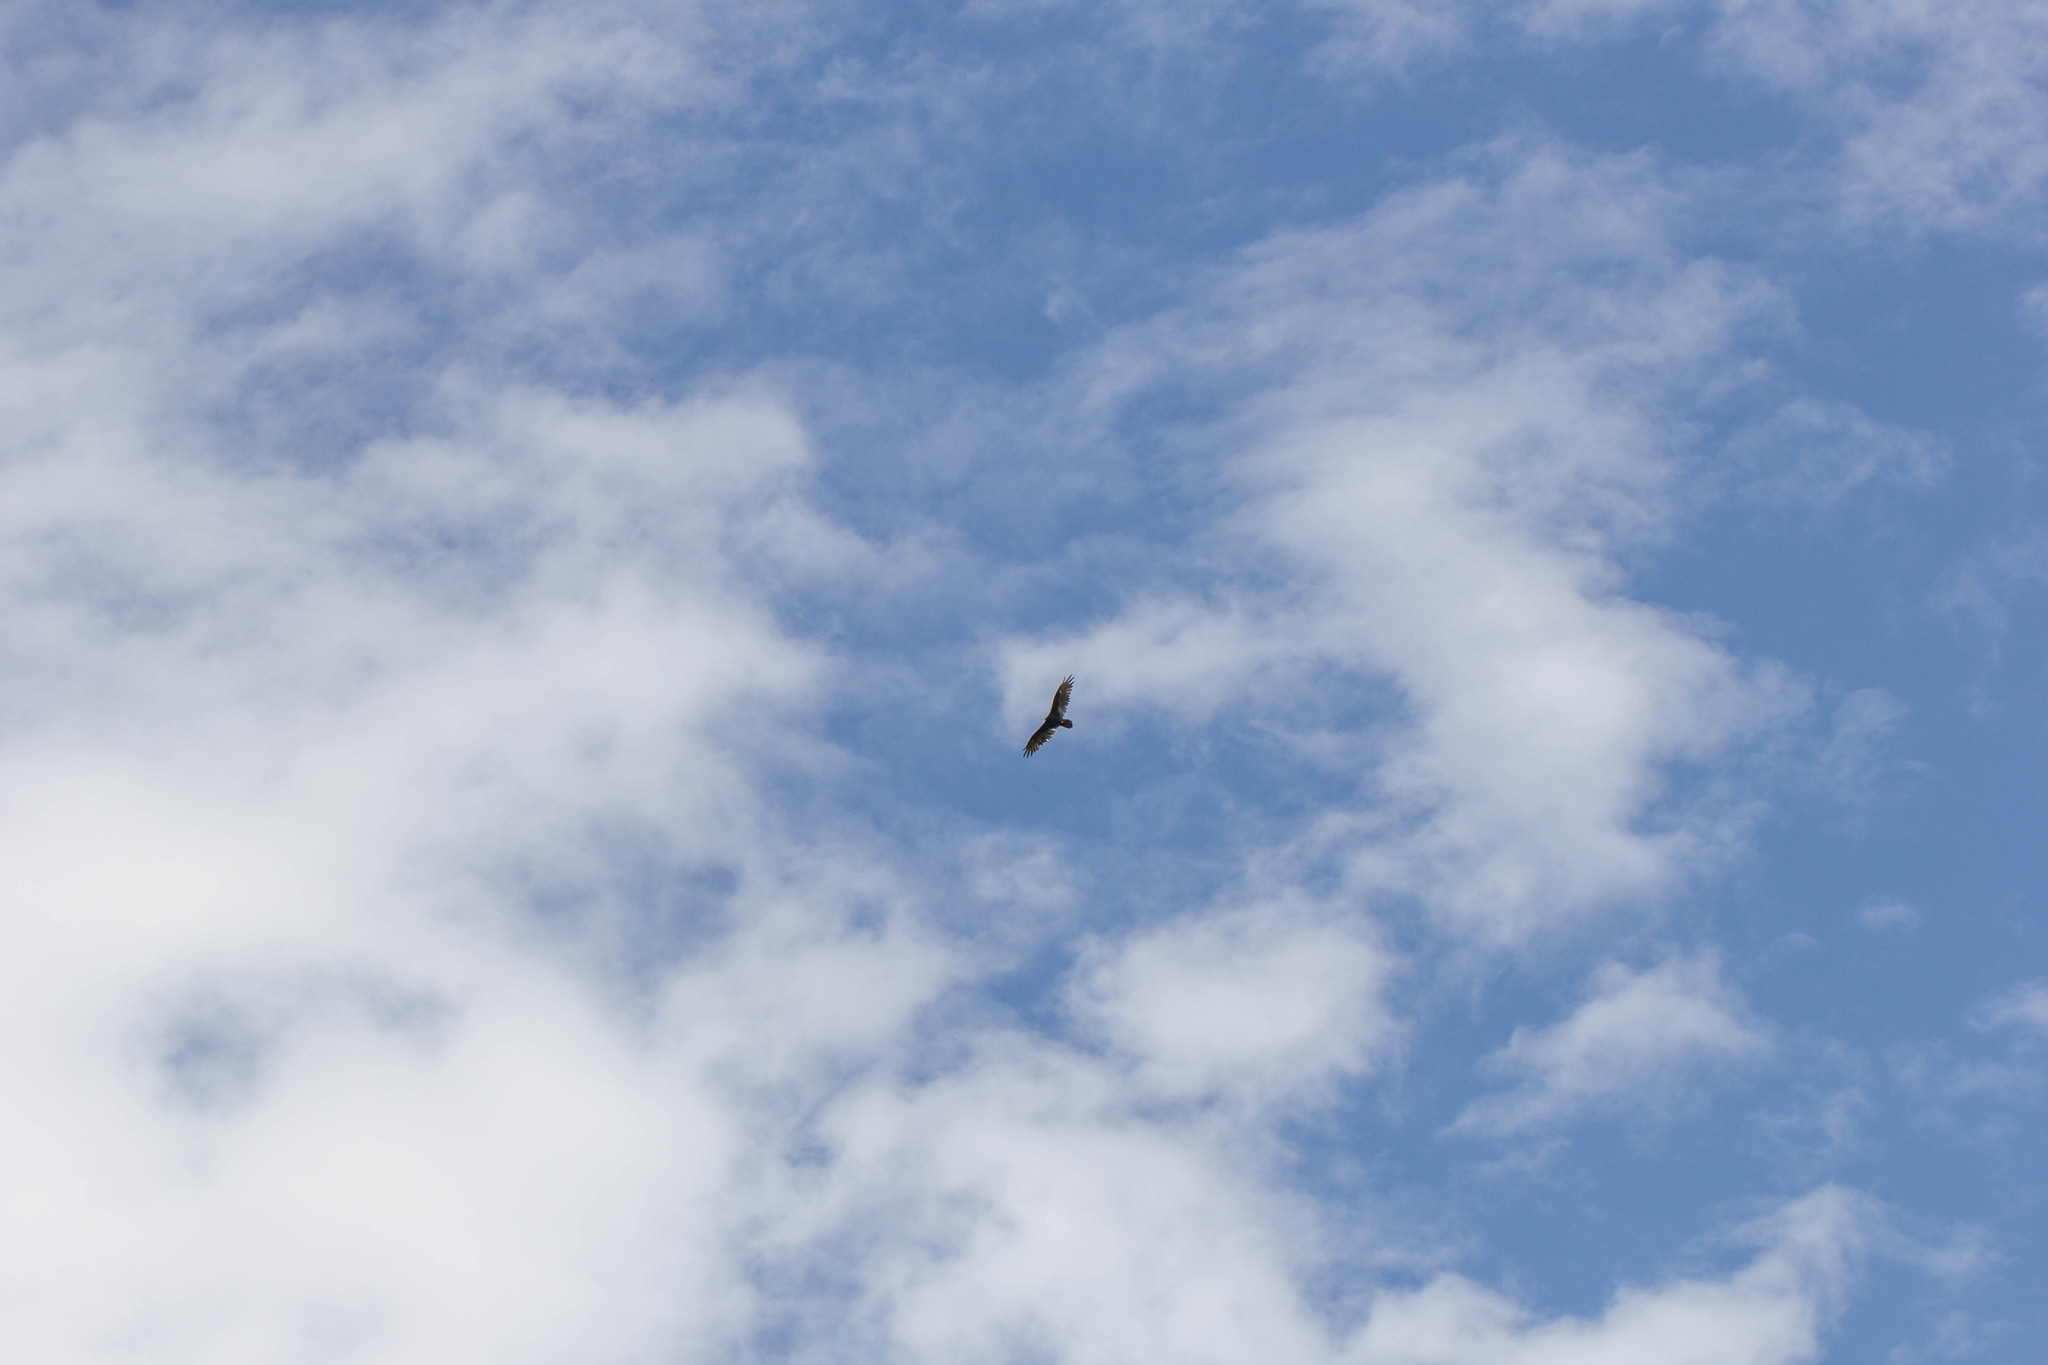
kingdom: Animalia
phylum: Chordata
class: Aves
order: Accipitriformes
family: Cathartidae
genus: Cathartes
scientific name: Cathartes aura
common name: Turkey vulture
